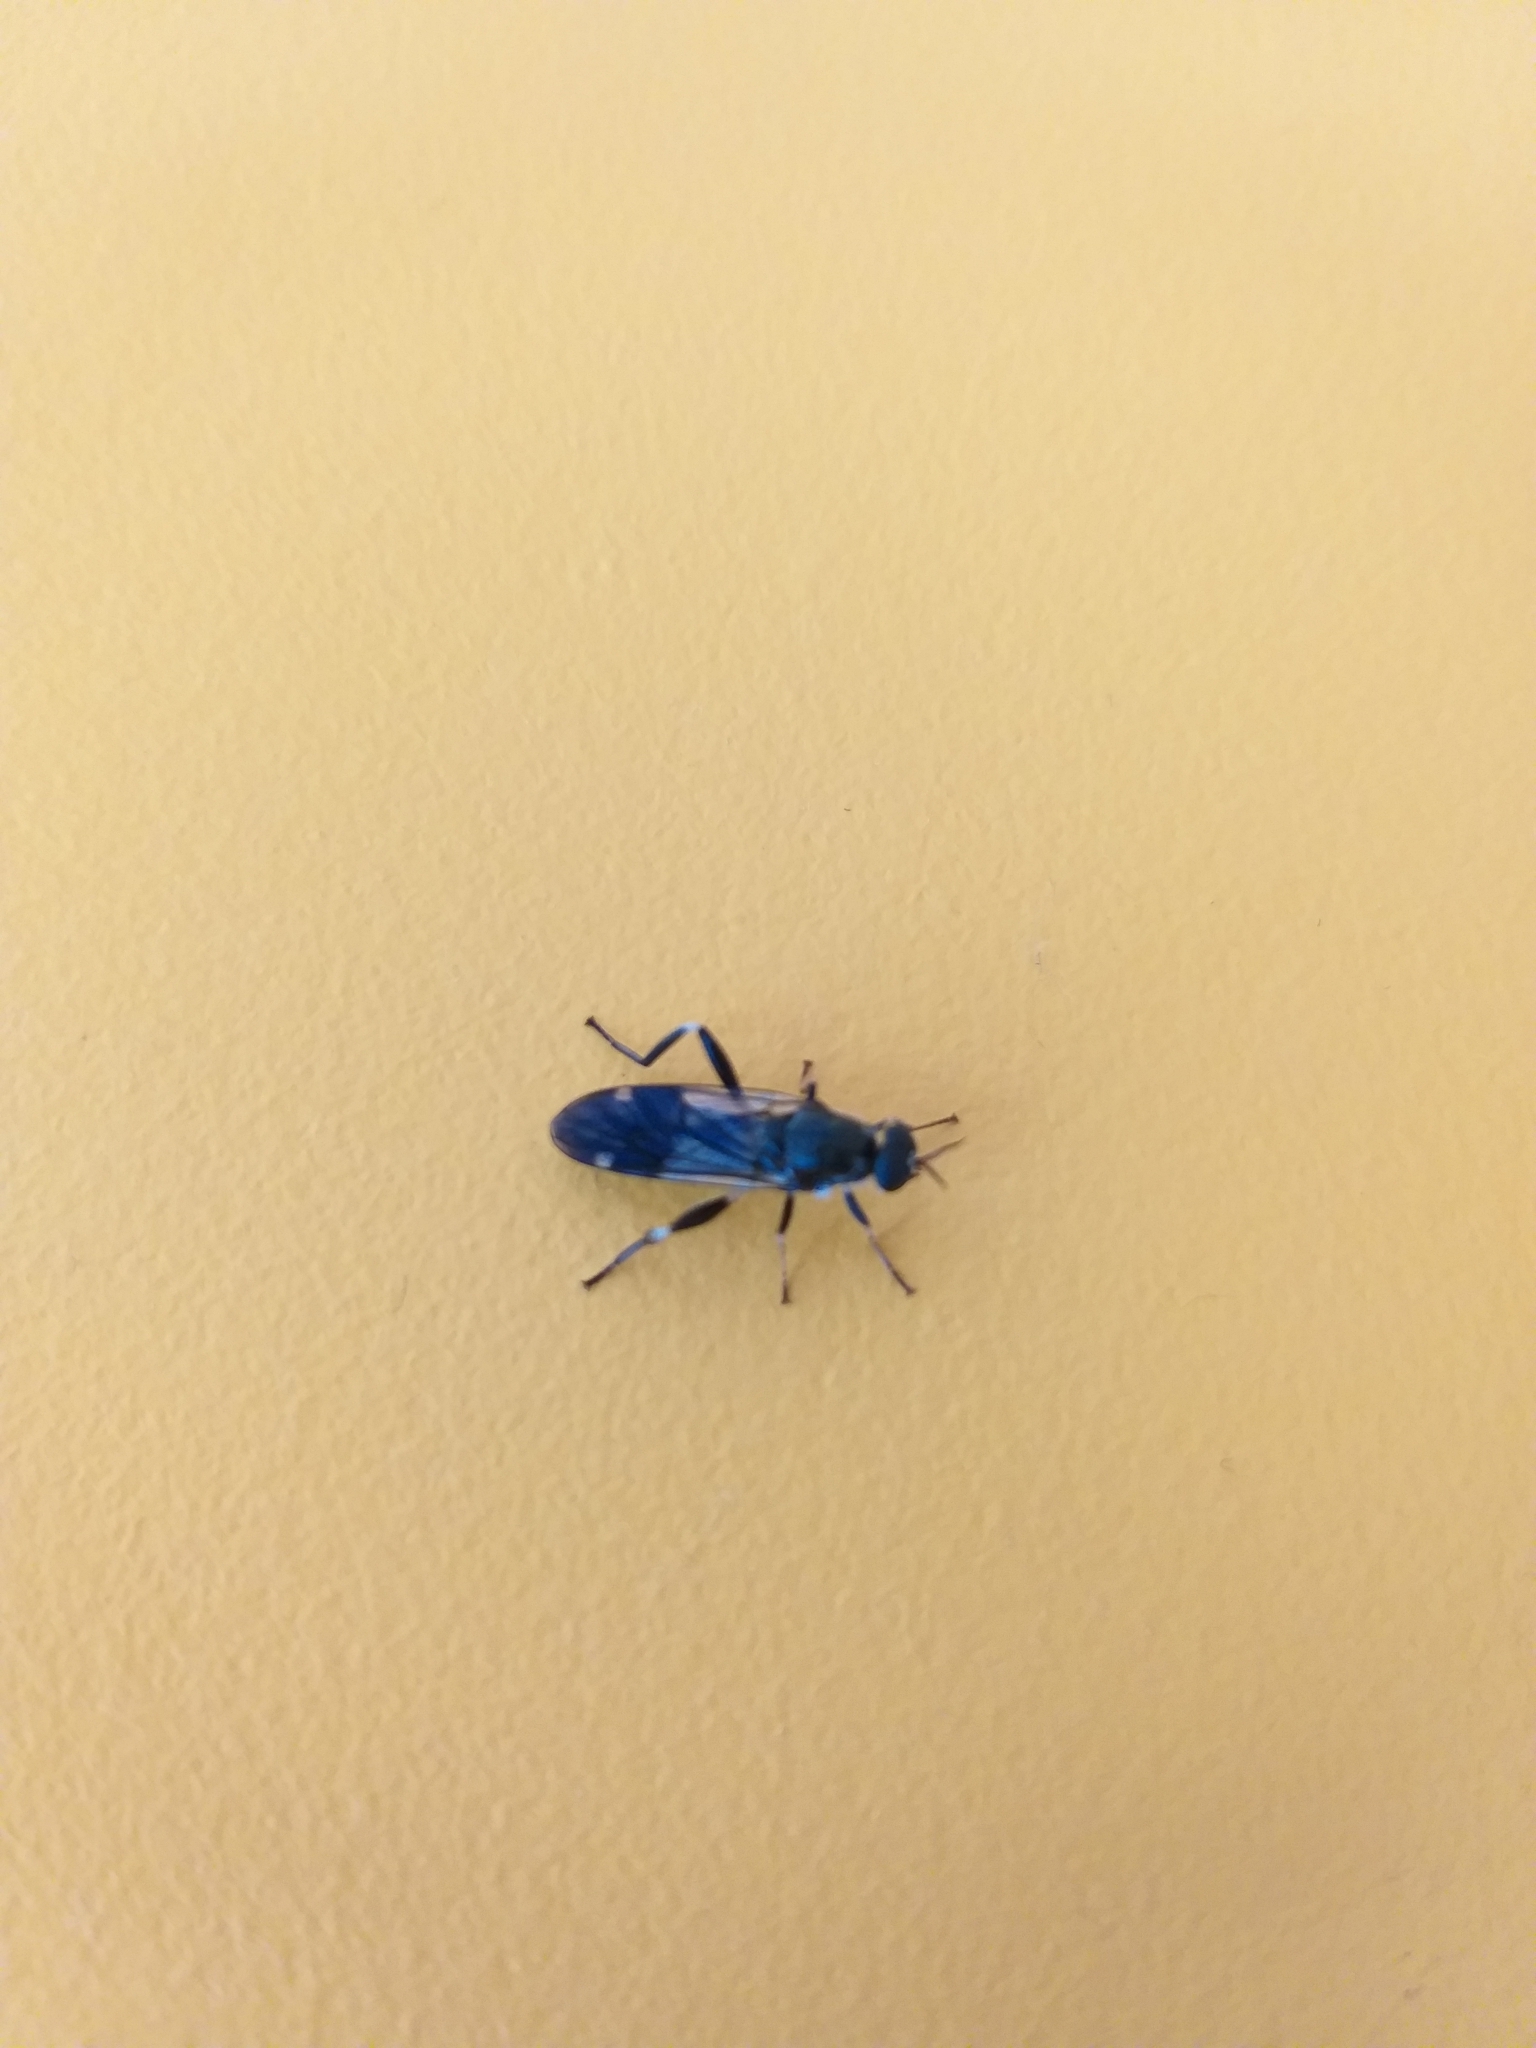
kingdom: Animalia
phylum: Arthropoda
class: Insecta
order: Diptera
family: Stratiomyidae
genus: Exaireta
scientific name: Exaireta spinigera
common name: Blue soldier fly
